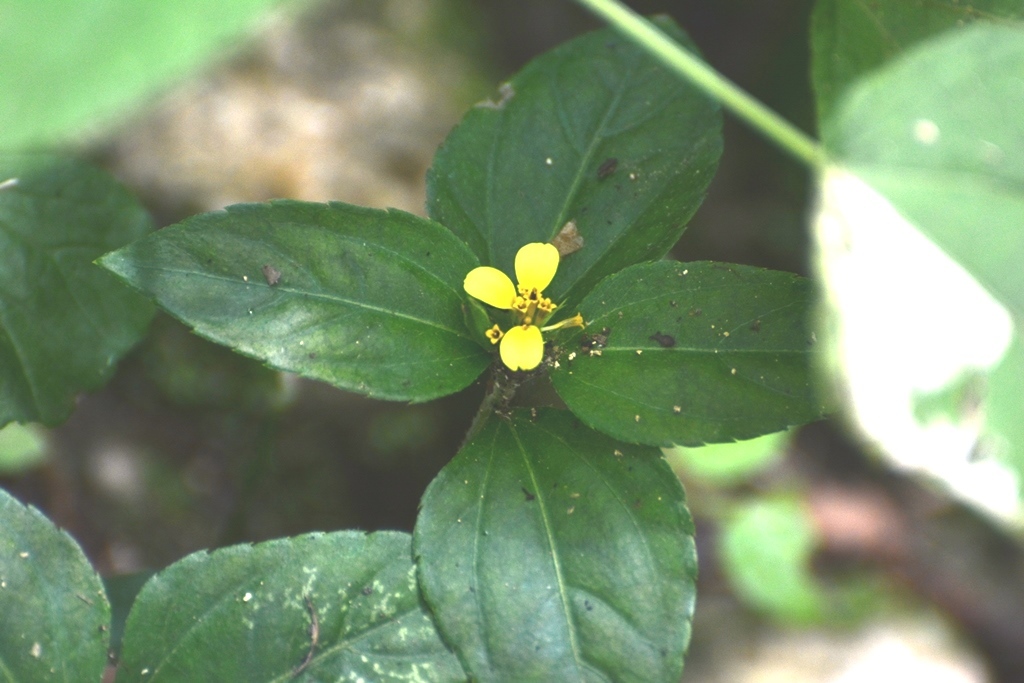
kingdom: Plantae
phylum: Tracheophyta
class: Magnoliopsida
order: Asterales
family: Asteraceae
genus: Calyptocarpus
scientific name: Calyptocarpus vialis
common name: Straggler daisy
